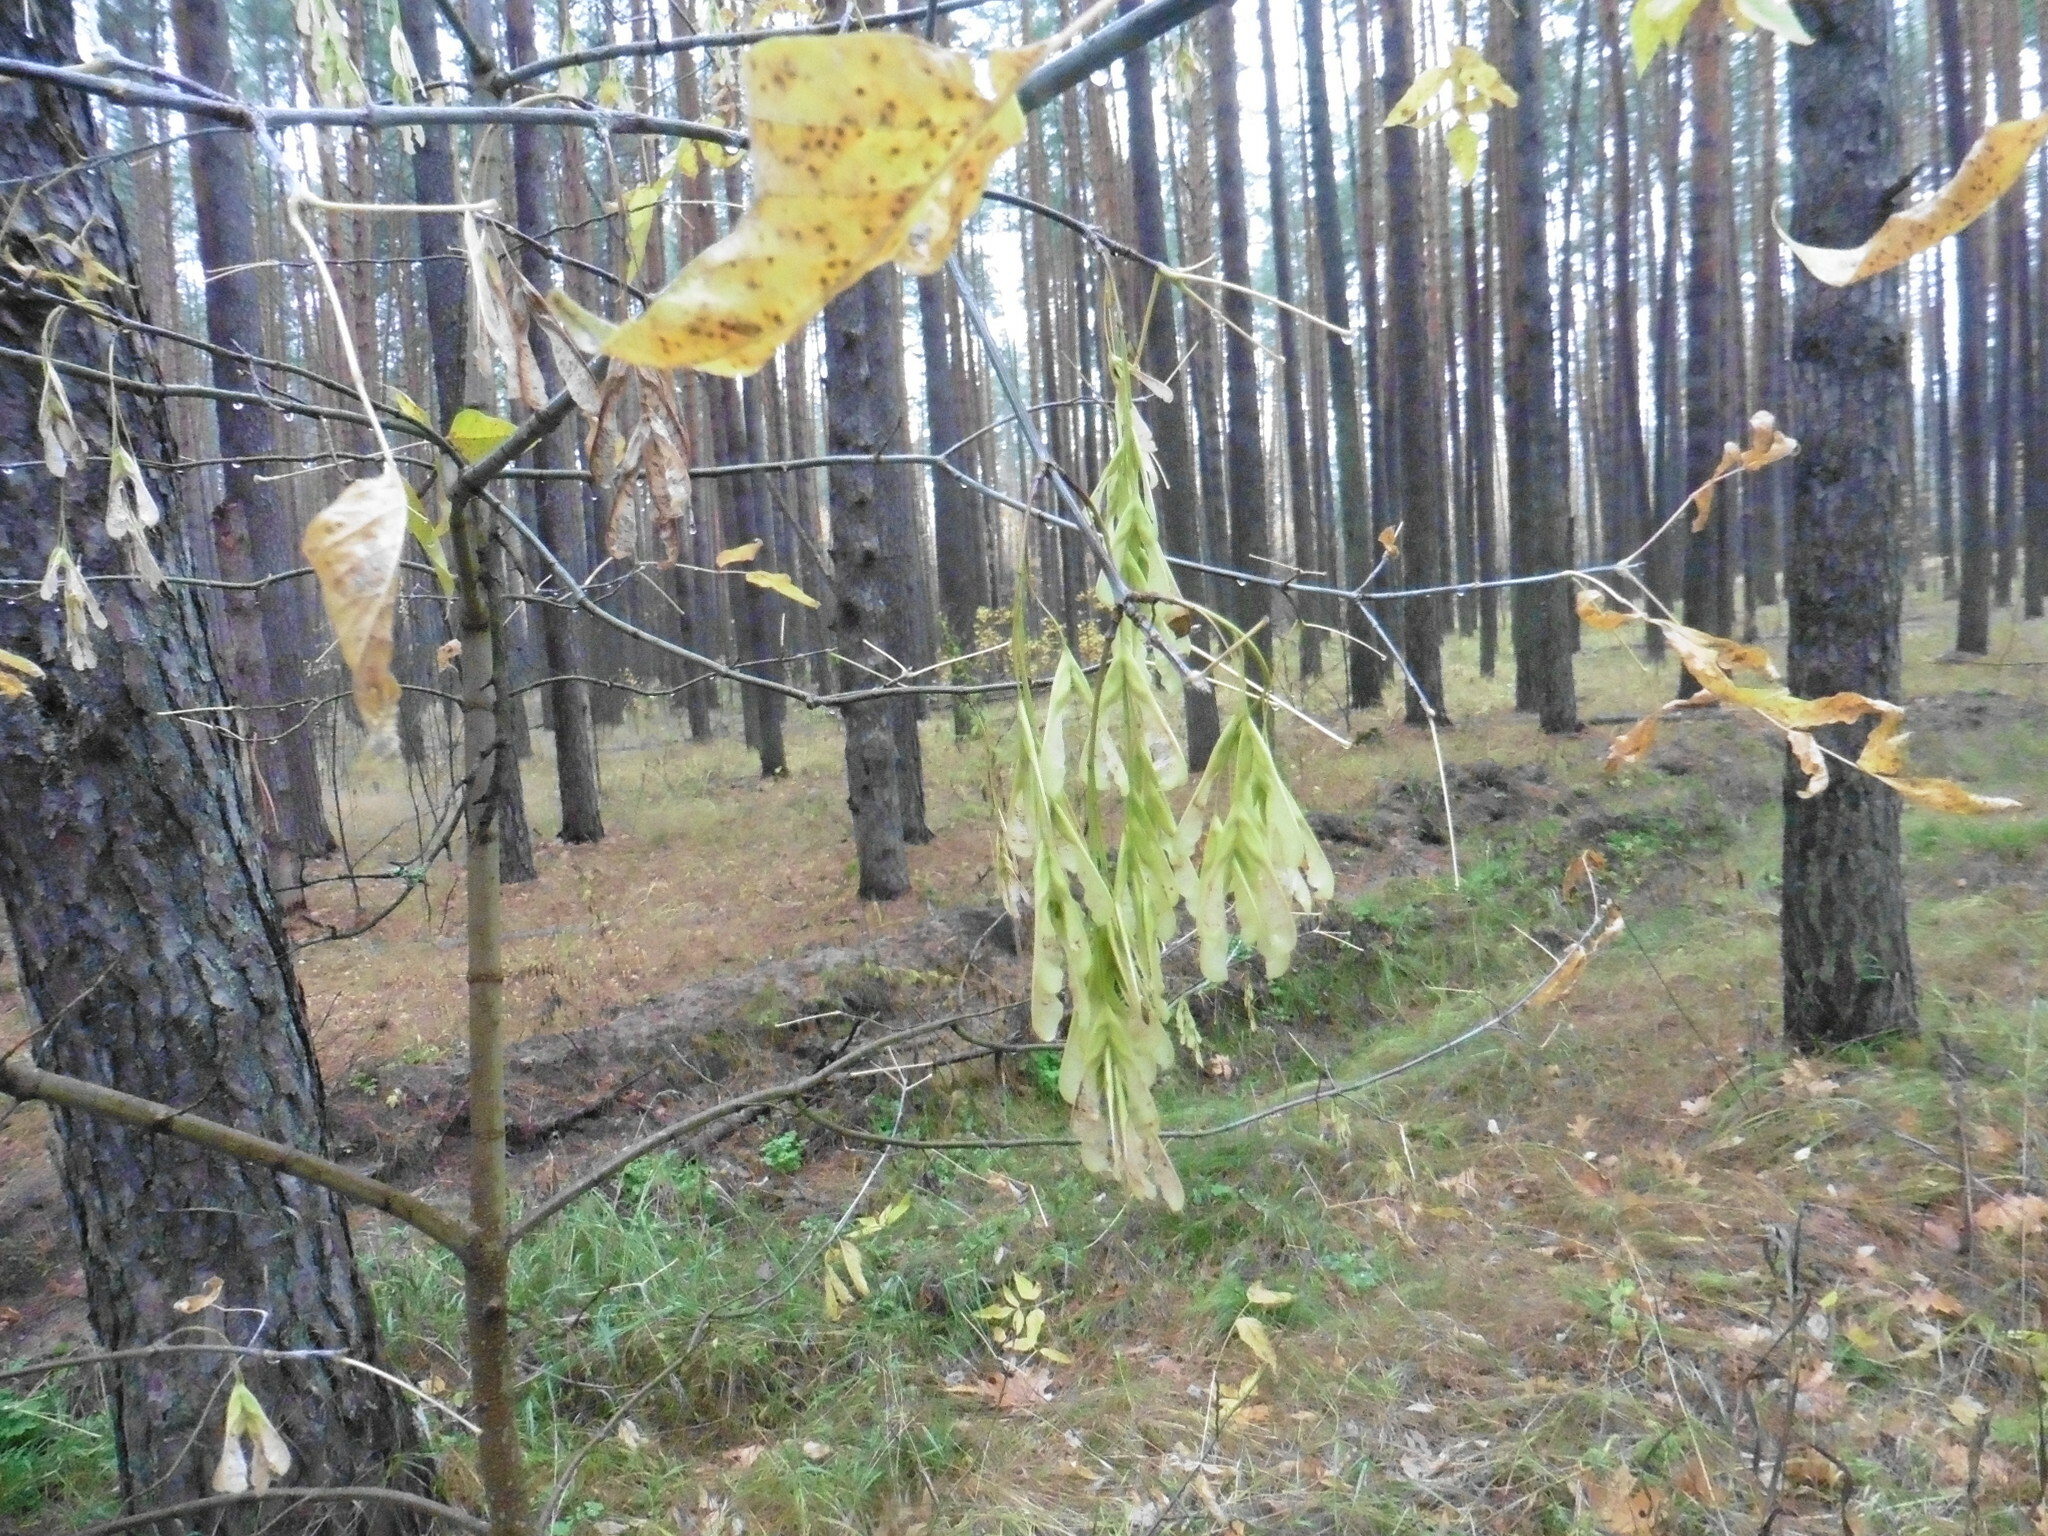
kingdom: Plantae
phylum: Tracheophyta
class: Magnoliopsida
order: Sapindales
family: Sapindaceae
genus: Acer
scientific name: Acer negundo
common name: Ashleaf maple
